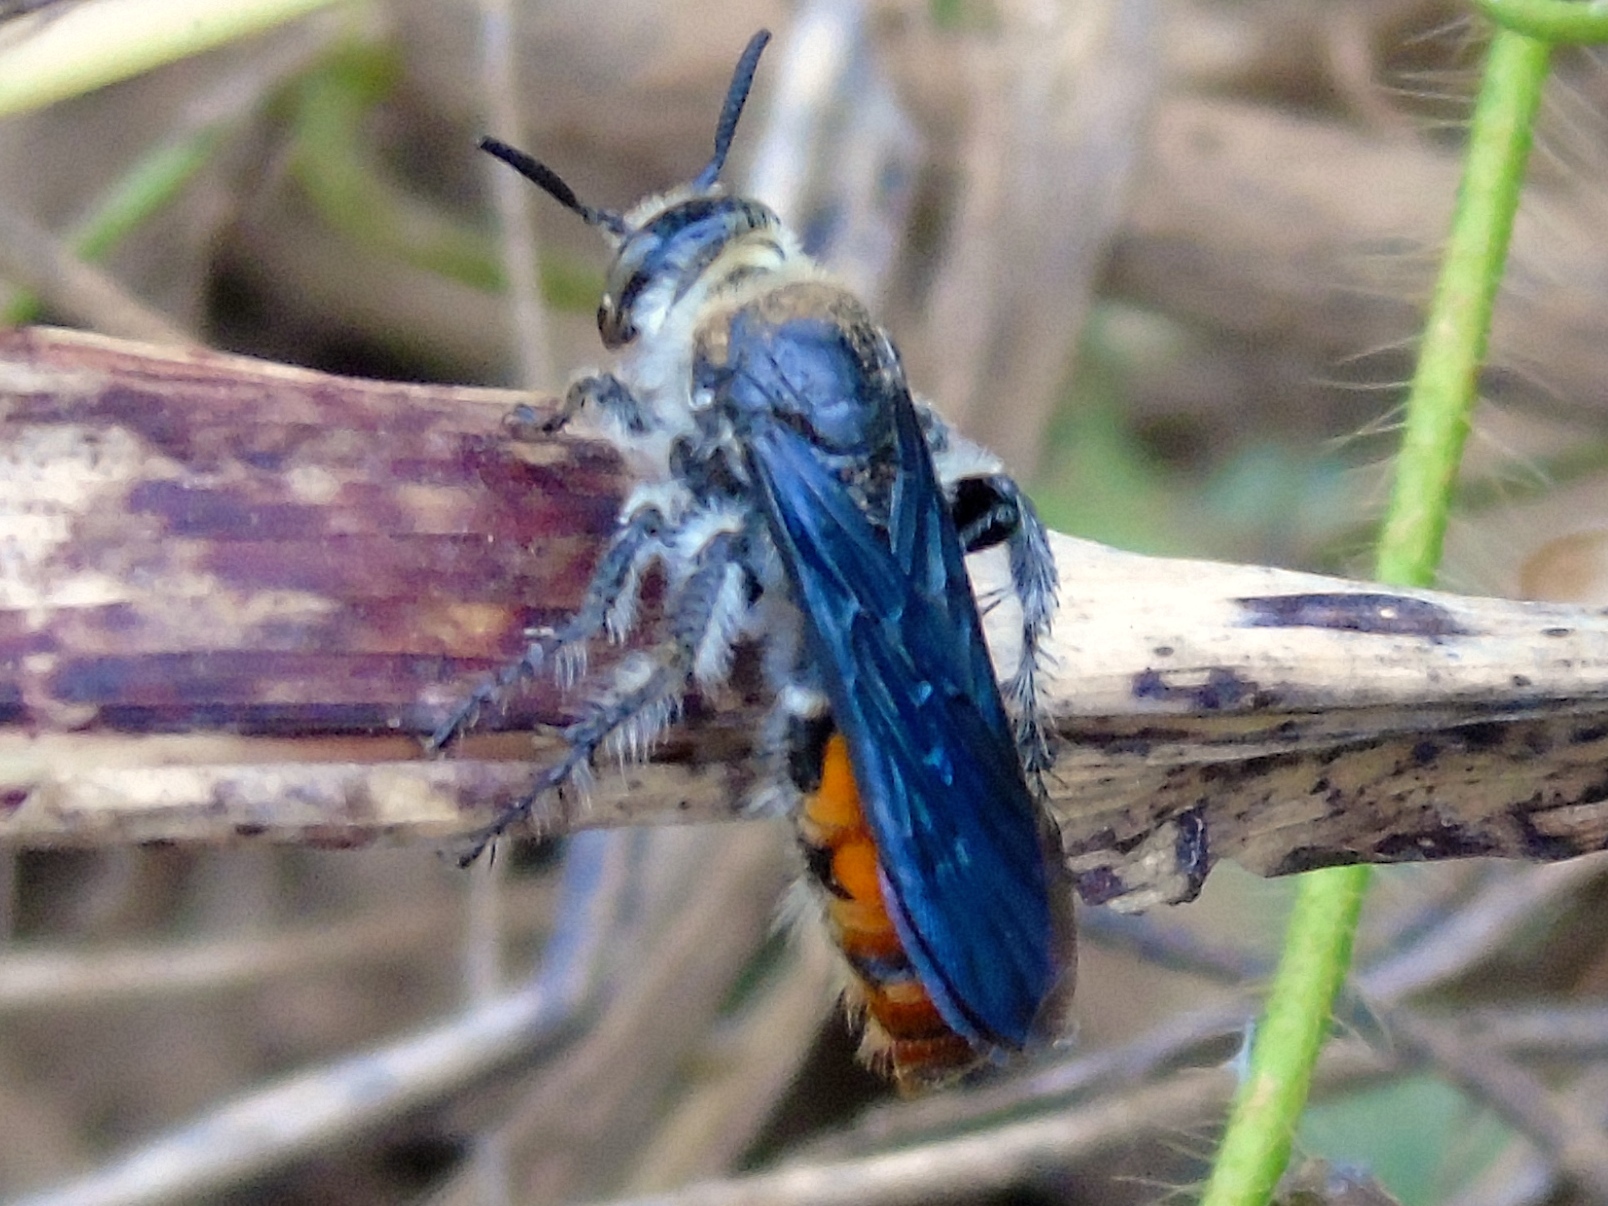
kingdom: Animalia
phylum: Arthropoda
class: Insecta
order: Hymenoptera
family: Scoliidae
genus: Dielis
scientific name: Dielis tolteca
